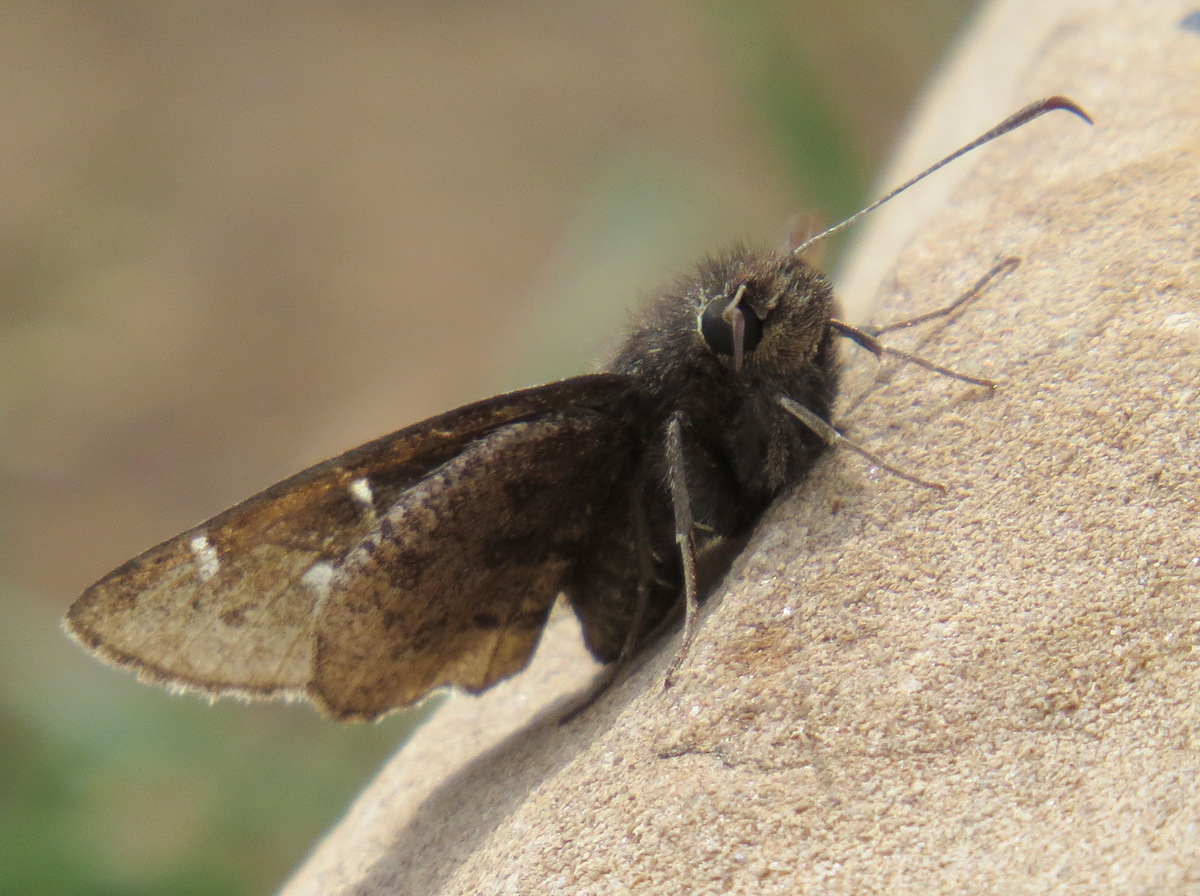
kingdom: Animalia
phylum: Arthropoda
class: Insecta
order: Lepidoptera
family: Hesperiidae
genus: Thorybes
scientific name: Thorybes mexicana
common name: Mexican cloudywing
